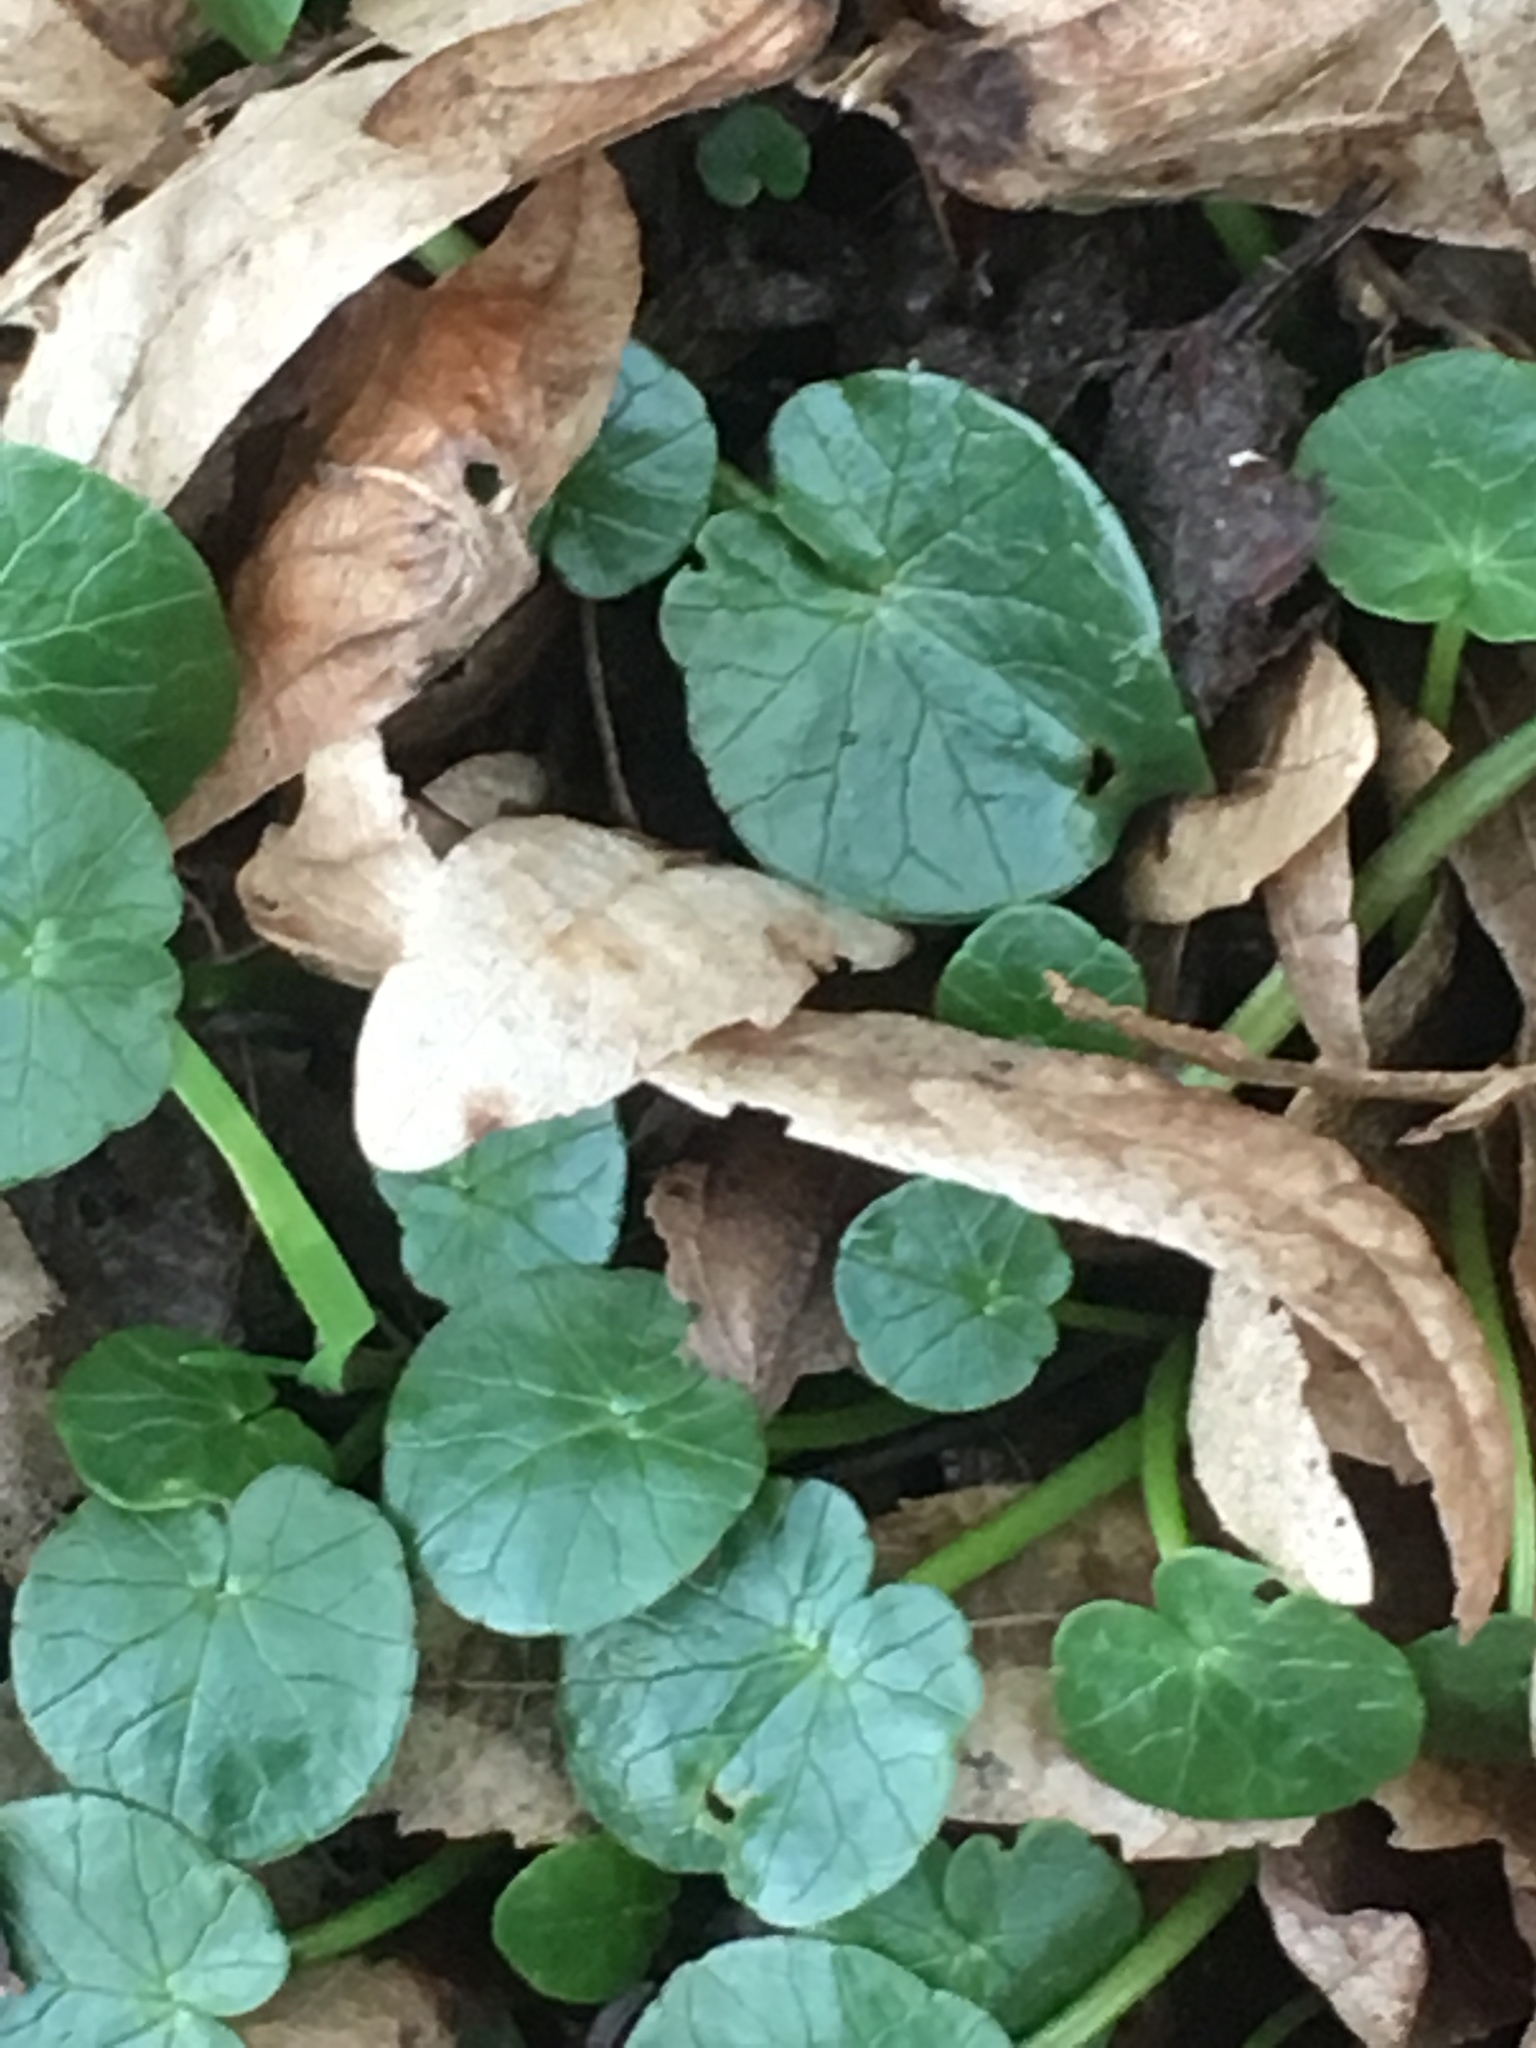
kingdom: Plantae
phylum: Tracheophyta
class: Magnoliopsida
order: Ranunculales
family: Ranunculaceae
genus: Ficaria
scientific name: Ficaria verna
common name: Lesser celandine
